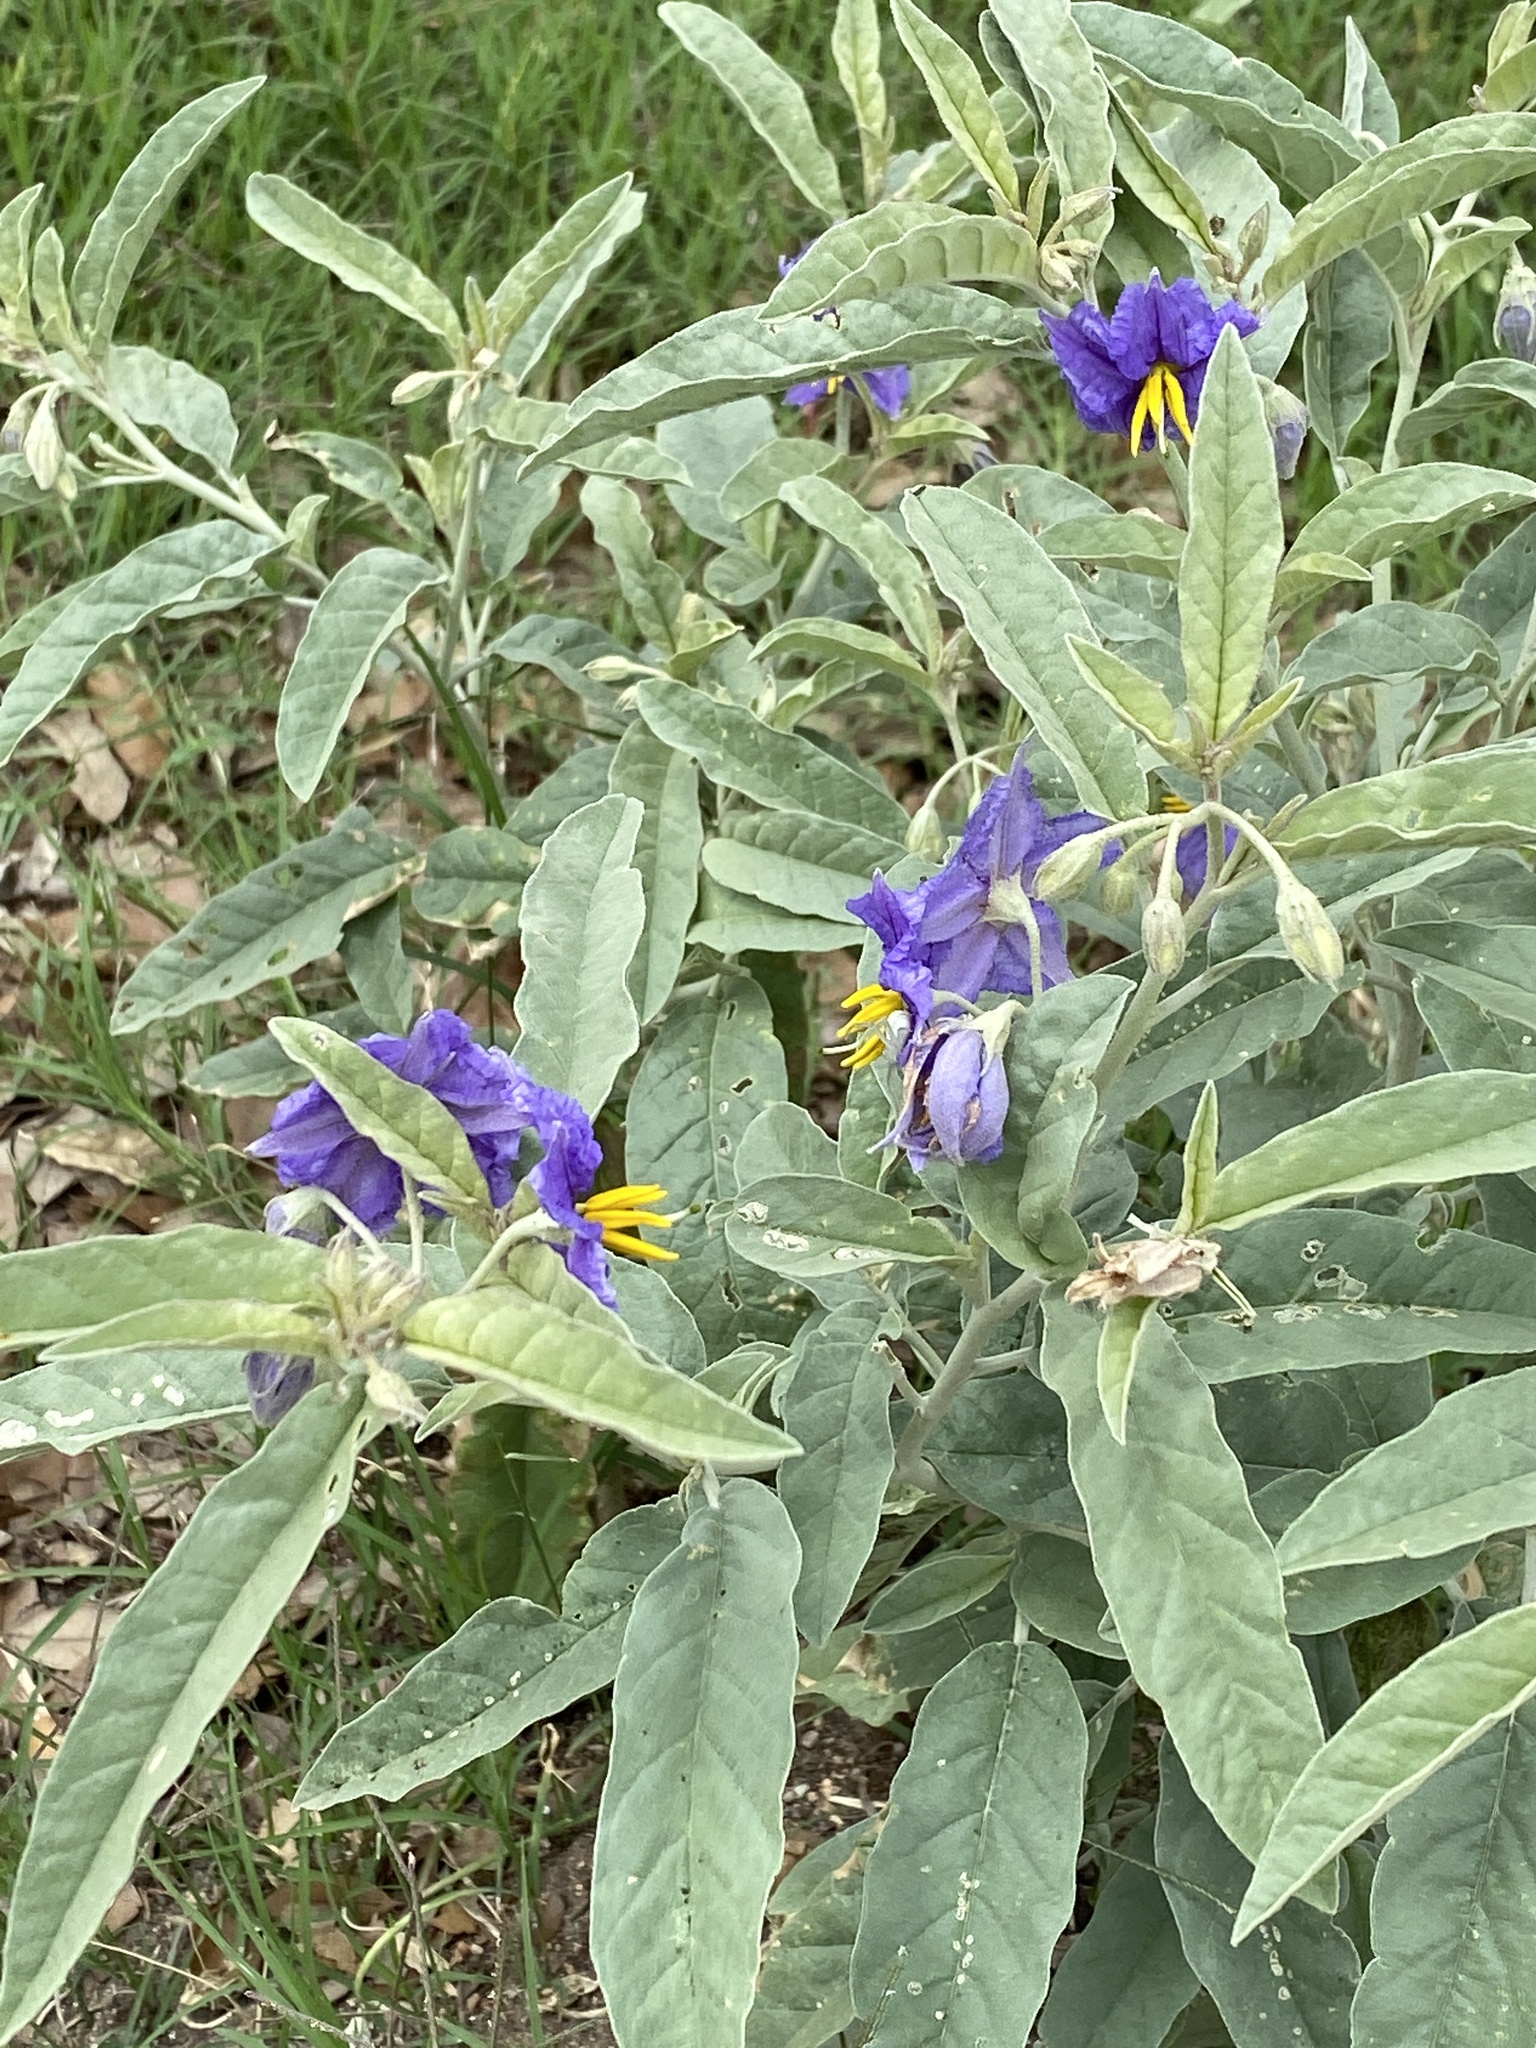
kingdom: Plantae
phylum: Tracheophyta
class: Magnoliopsida
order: Solanales
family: Solanaceae
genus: Solanum
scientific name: Solanum elaeagnifolium
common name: Silverleaf nightshade
